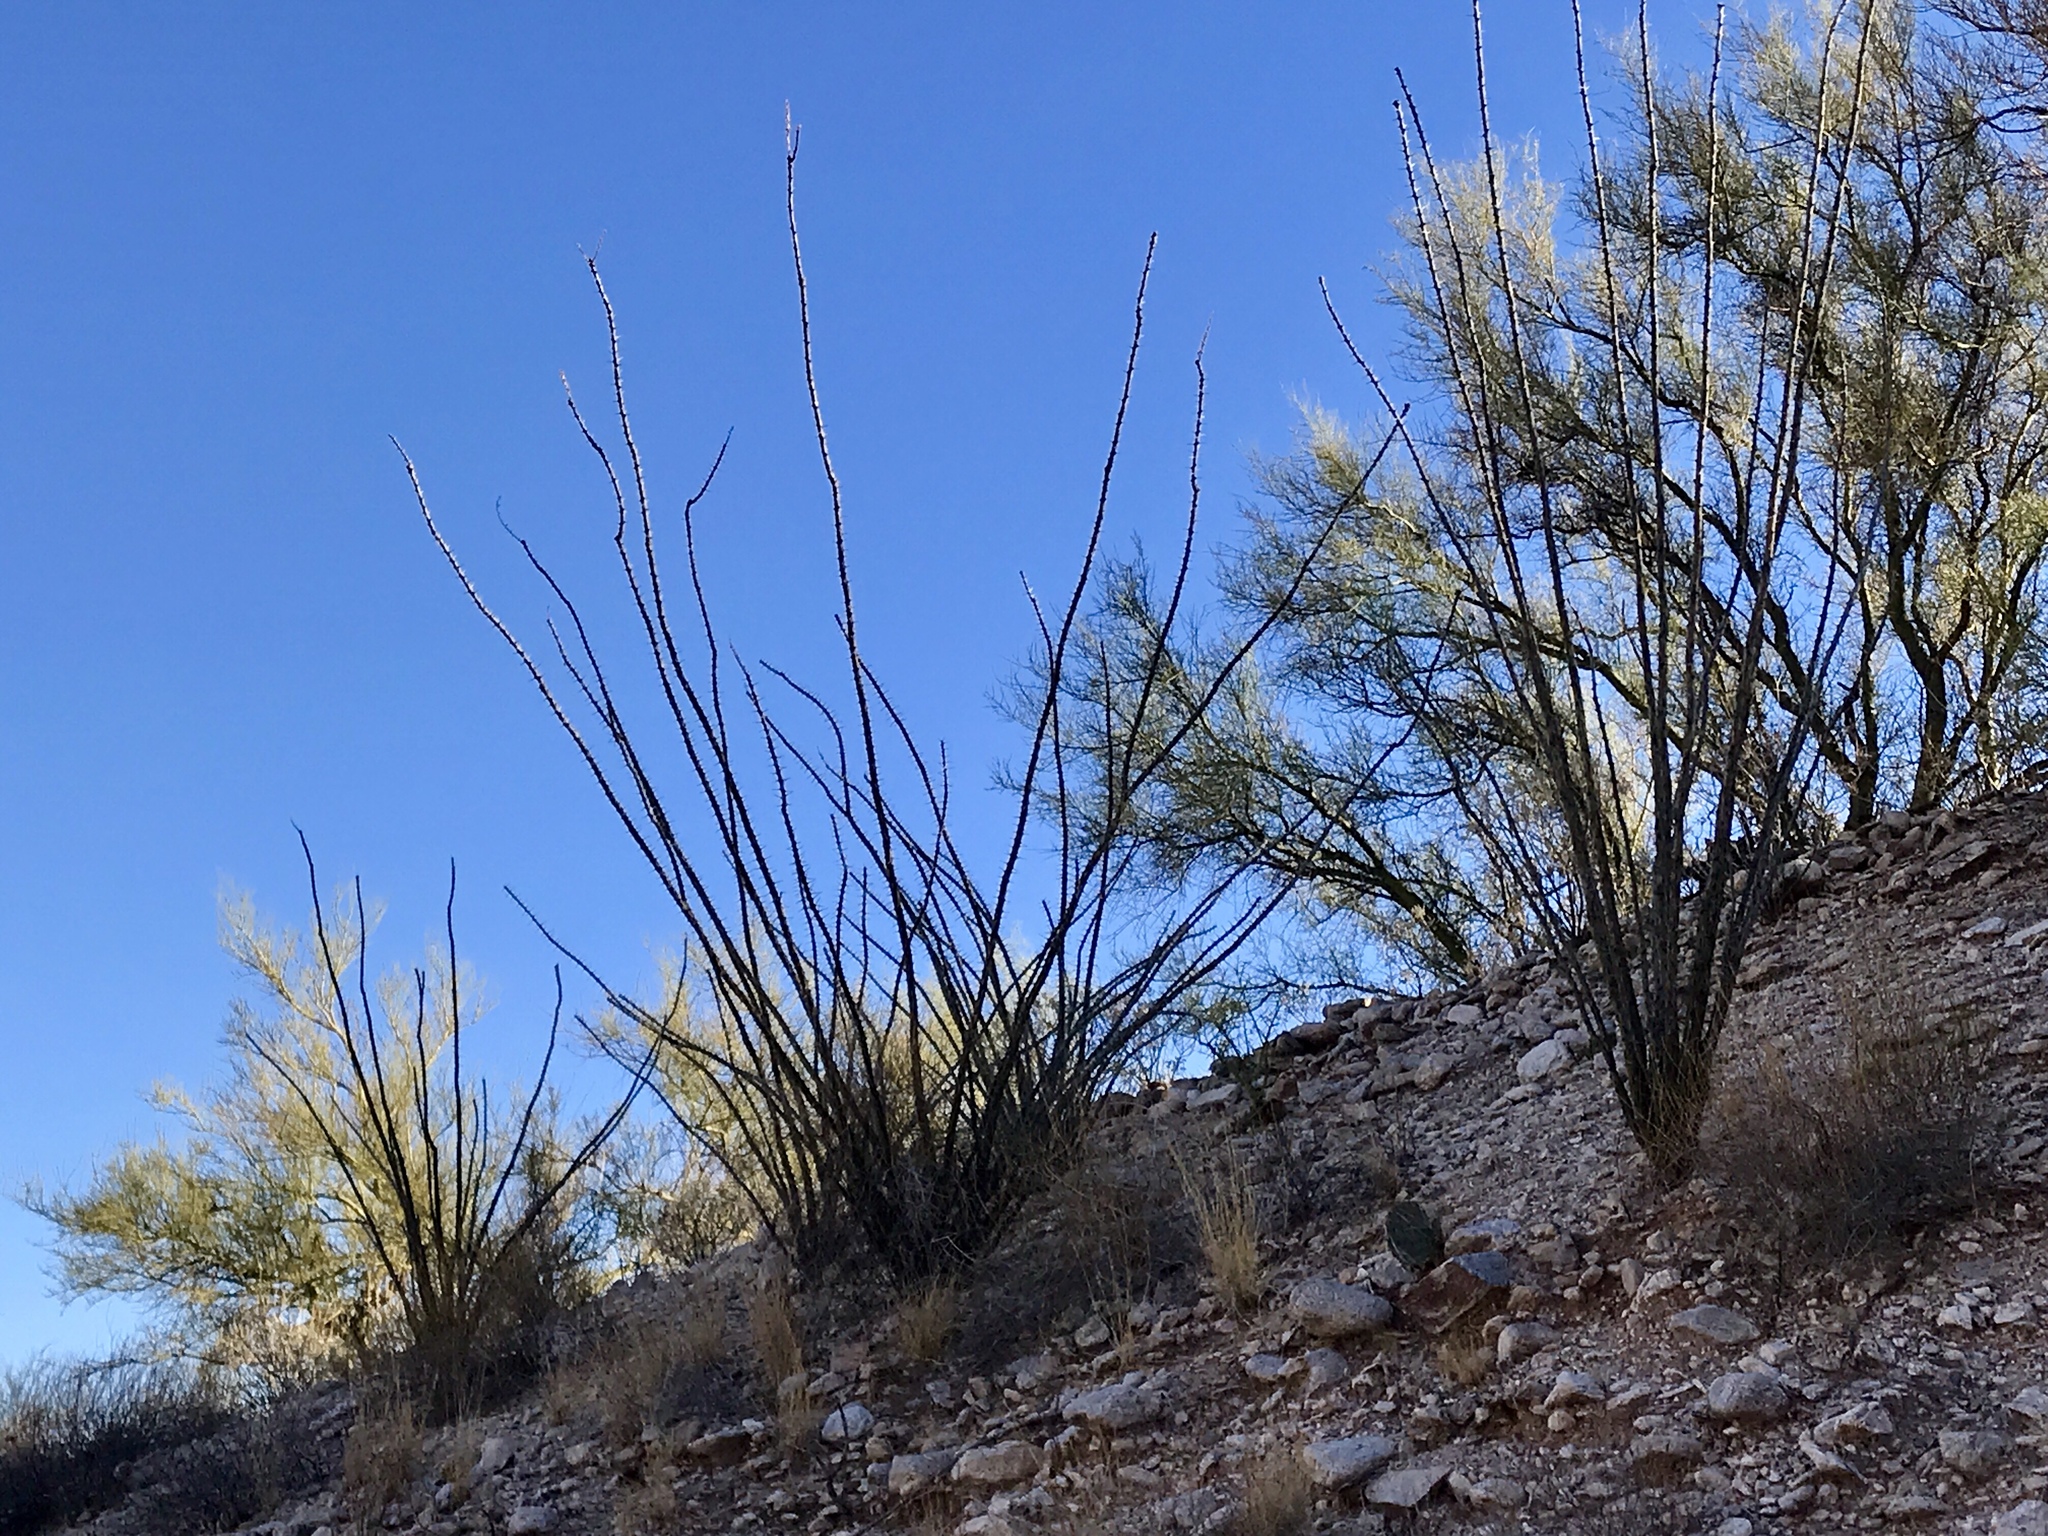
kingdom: Plantae
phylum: Tracheophyta
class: Magnoliopsida
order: Ericales
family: Fouquieriaceae
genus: Fouquieria
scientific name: Fouquieria splendens
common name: Vine-cactus
